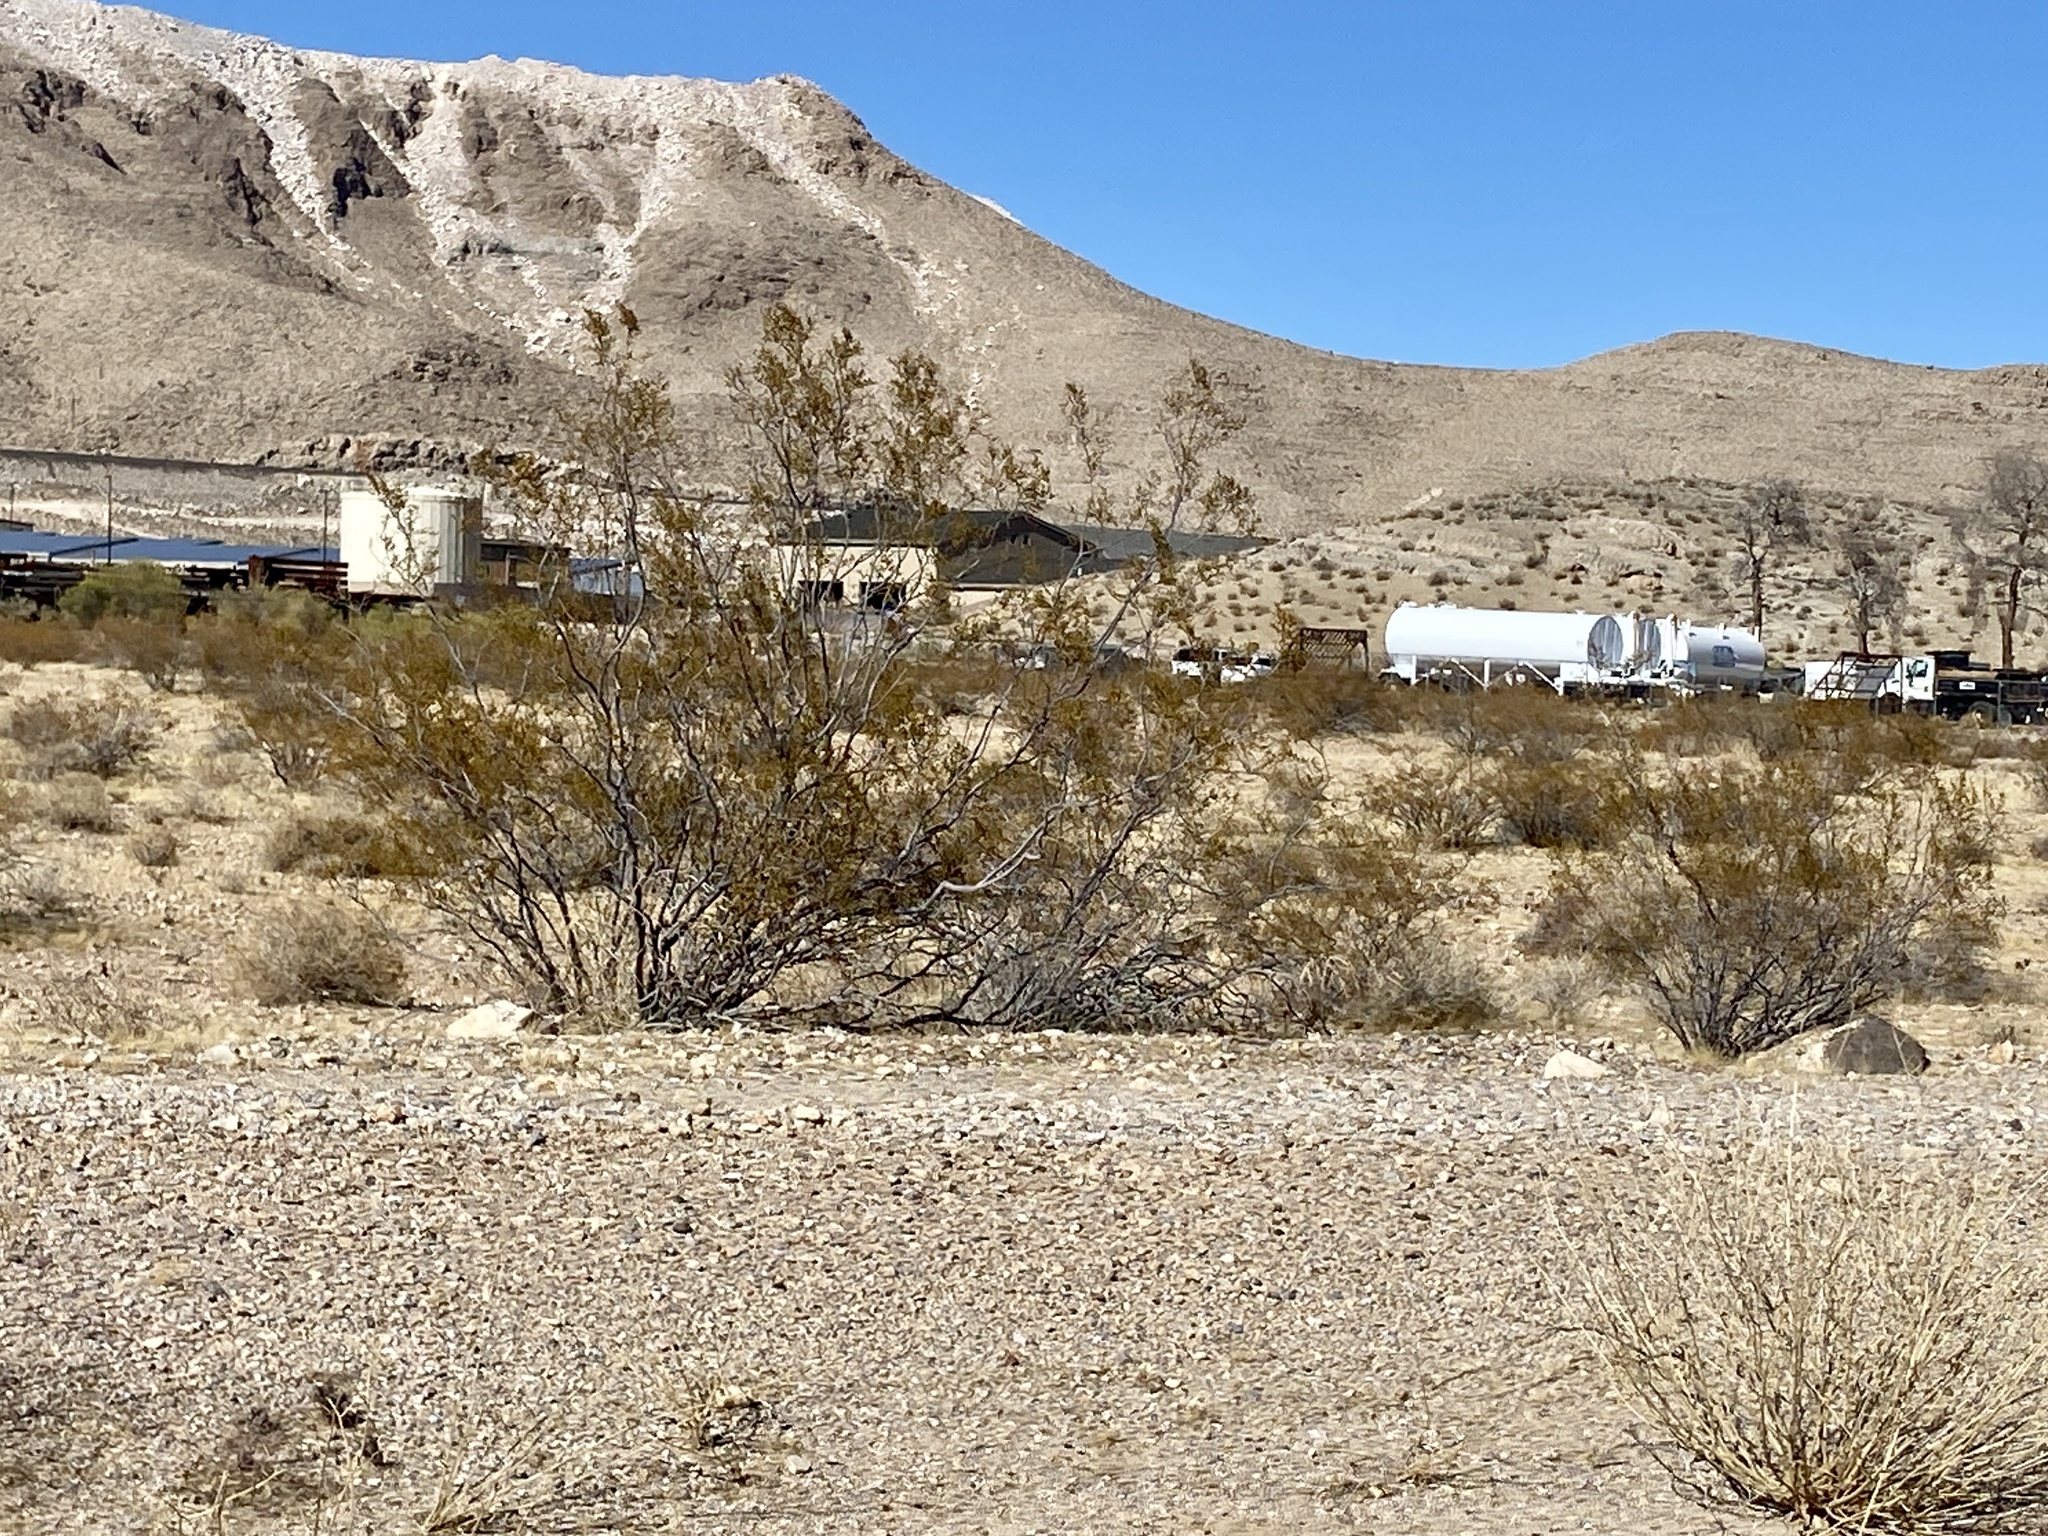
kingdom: Plantae
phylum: Tracheophyta
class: Magnoliopsida
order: Zygophyllales
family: Zygophyllaceae
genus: Larrea
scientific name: Larrea tridentata
